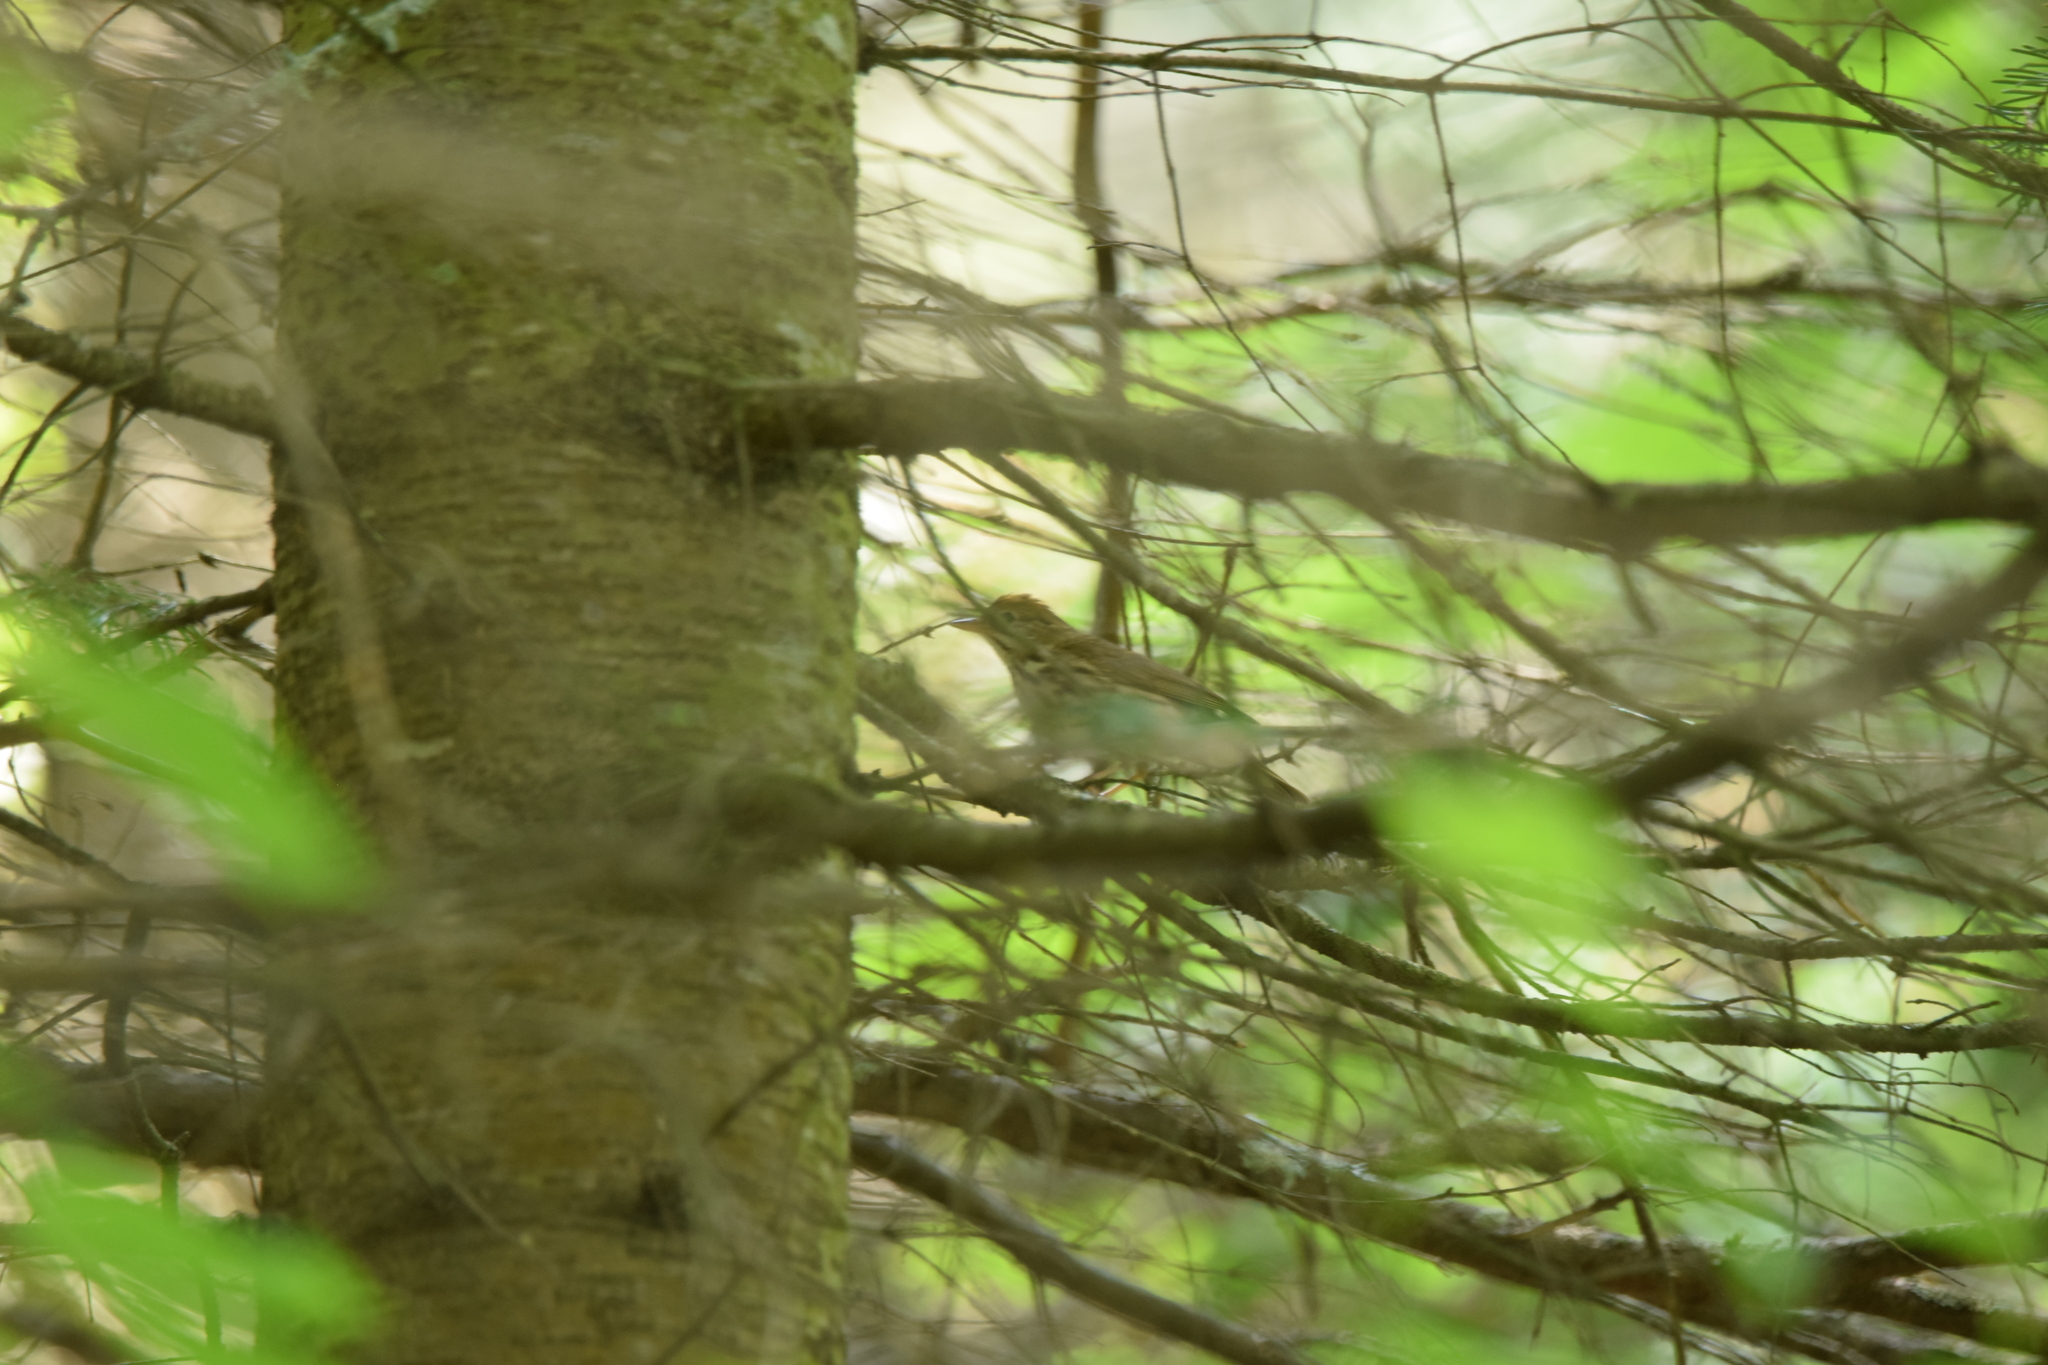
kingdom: Animalia
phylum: Chordata
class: Aves
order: Passeriformes
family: Parulidae
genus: Seiurus
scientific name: Seiurus aurocapilla
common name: Ovenbird
